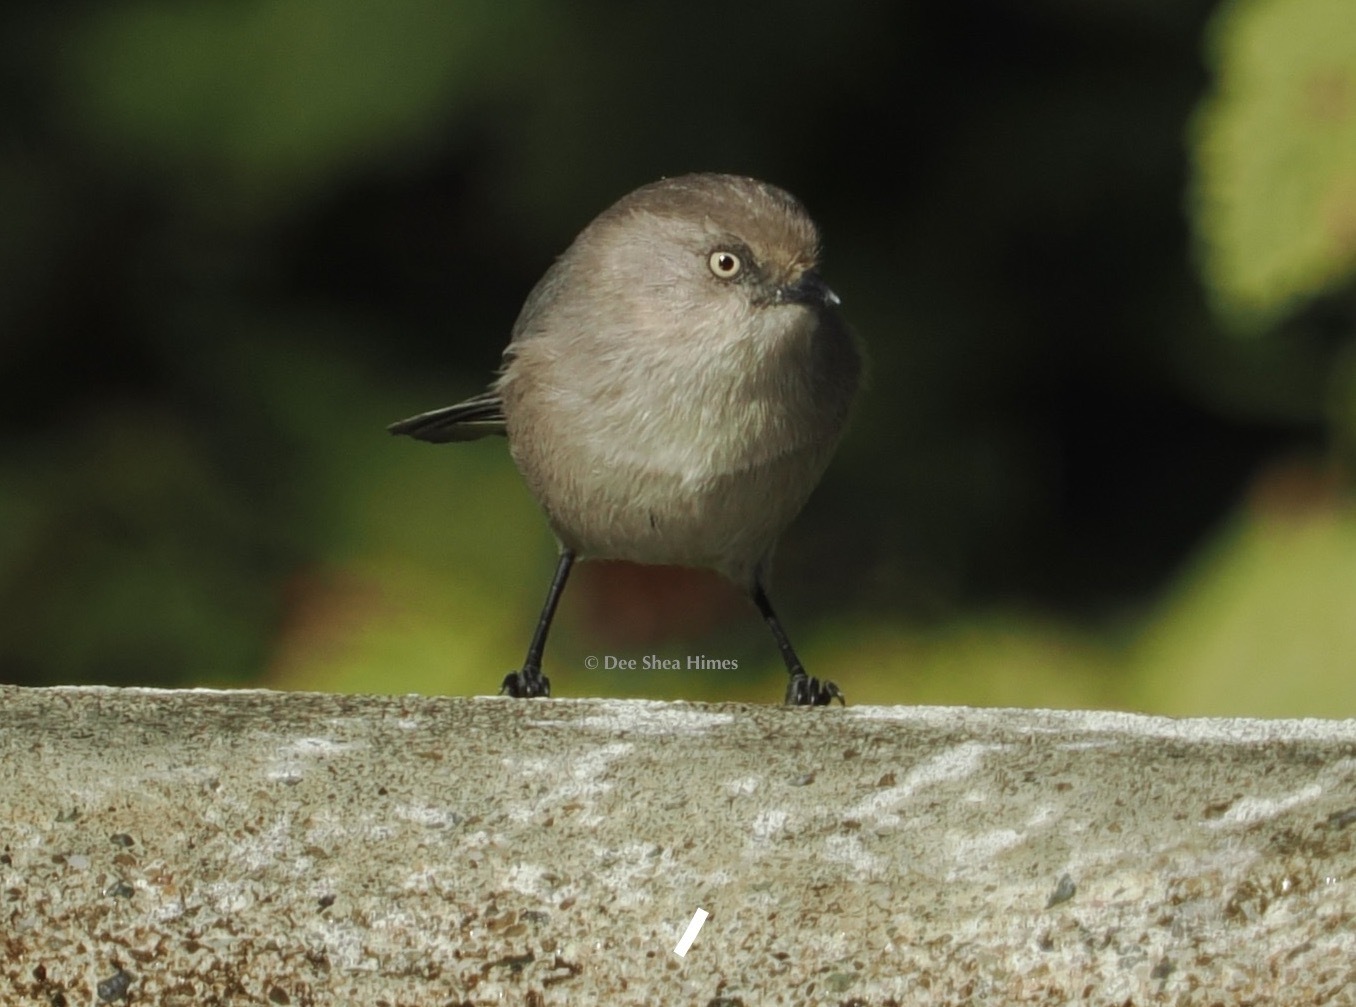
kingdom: Animalia
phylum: Chordata
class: Aves
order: Passeriformes
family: Aegithalidae
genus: Psaltriparus
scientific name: Psaltriparus minimus
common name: American bushtit
